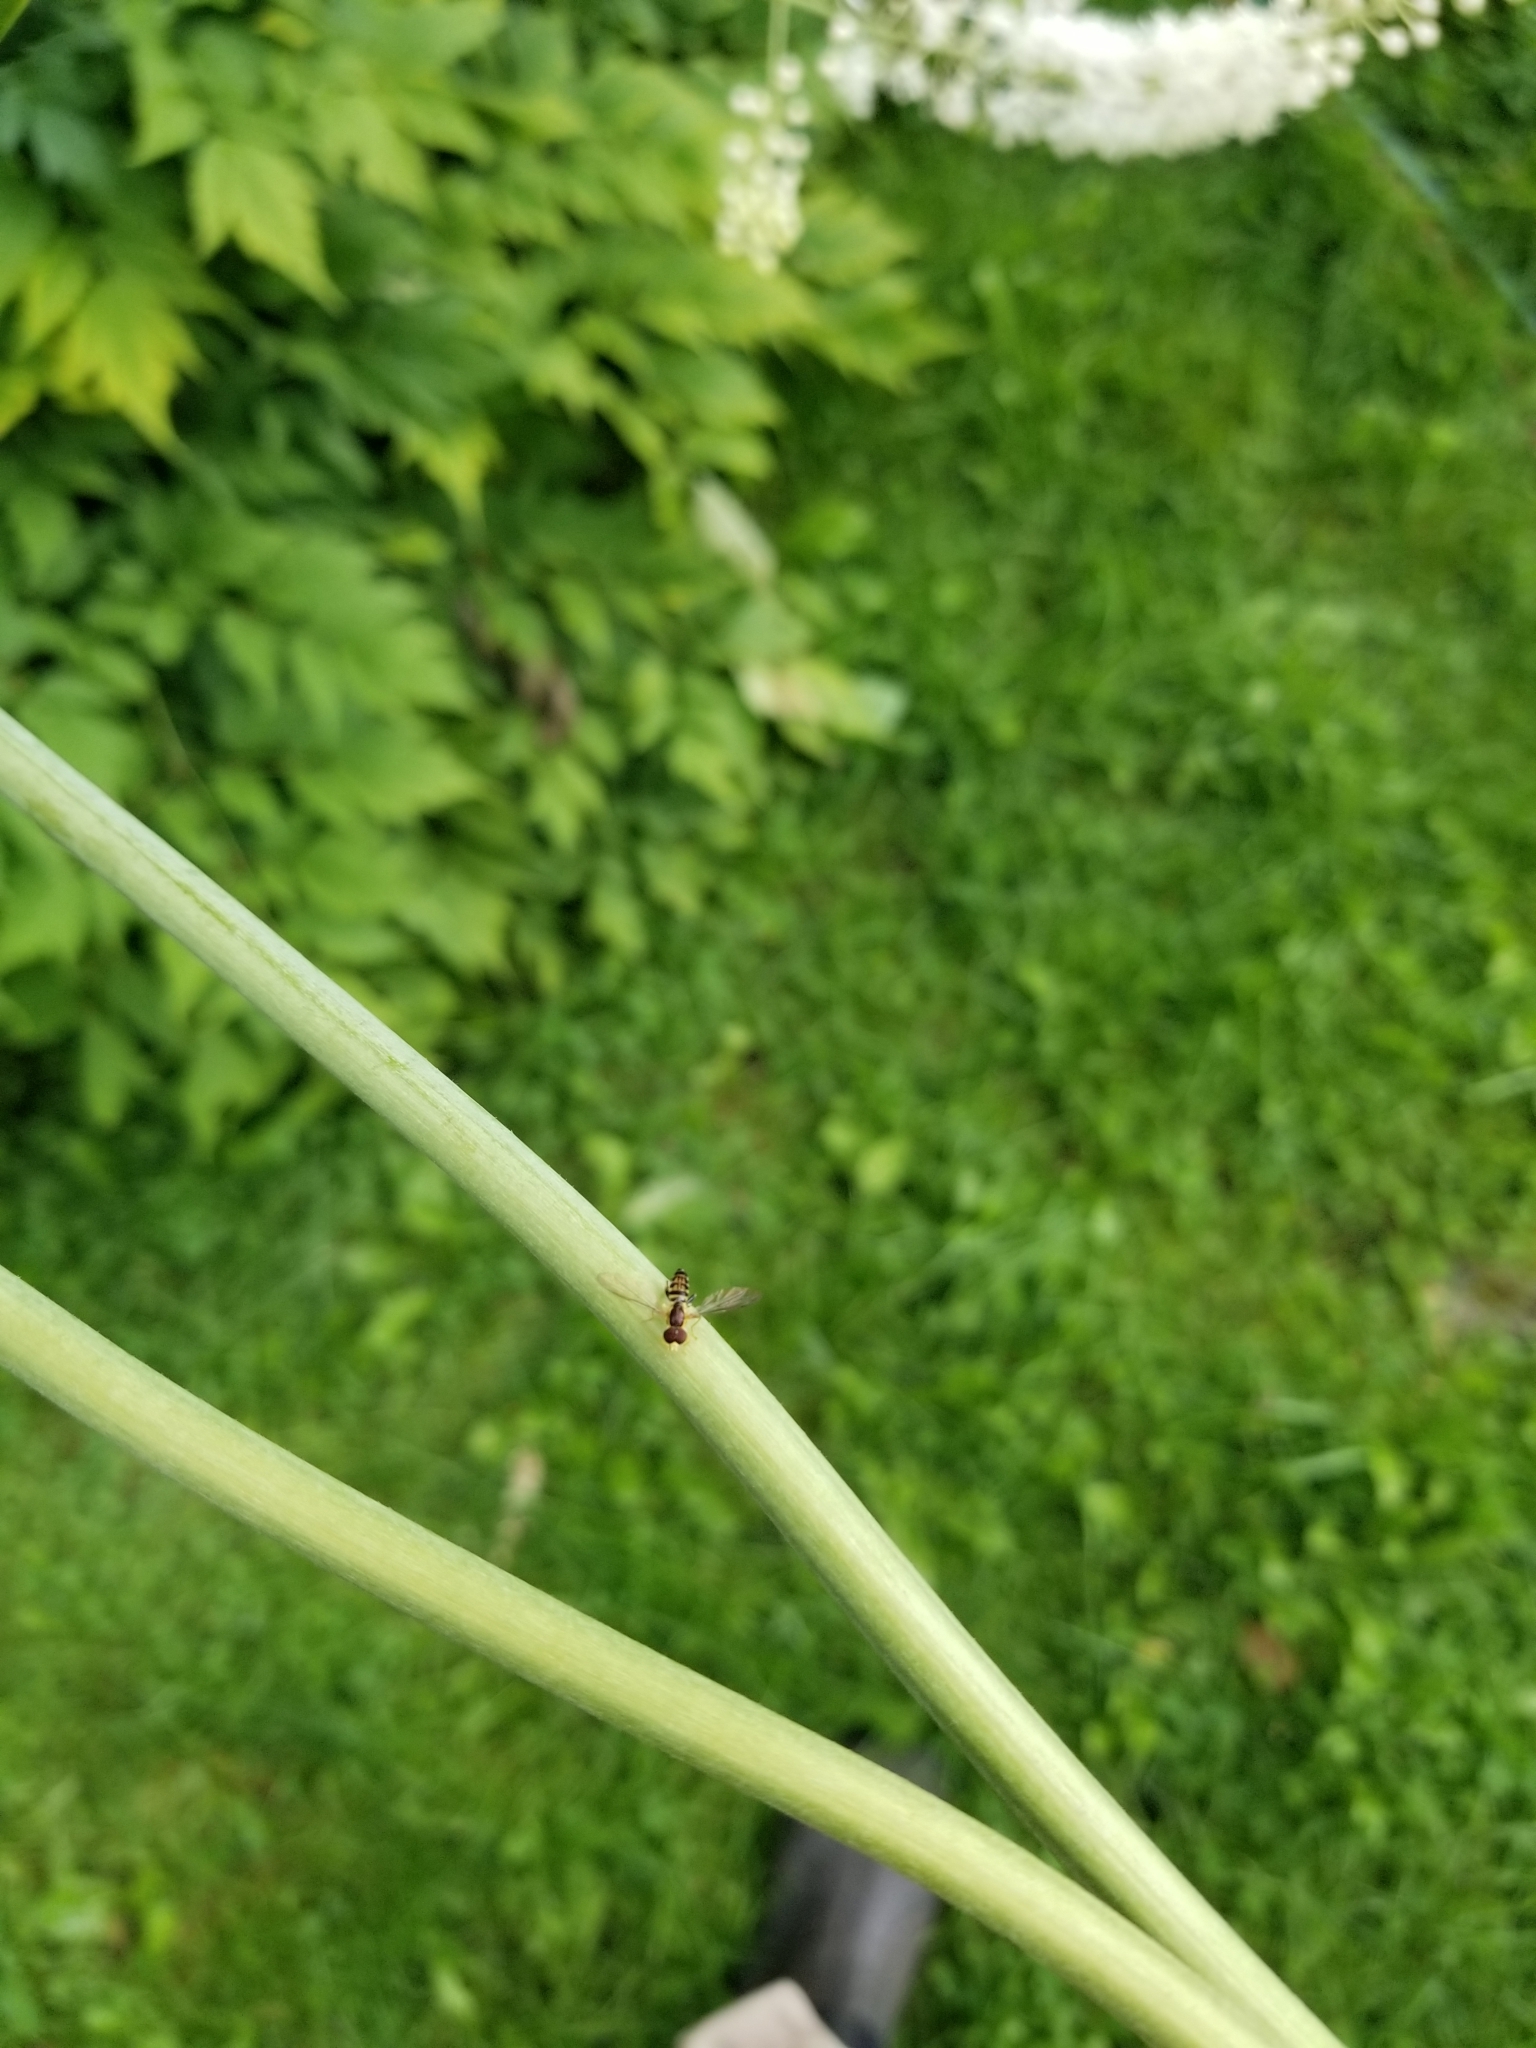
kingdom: Animalia
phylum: Arthropoda
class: Insecta
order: Diptera
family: Syrphidae
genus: Toxomerus
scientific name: Toxomerus geminatus
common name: Eastern calligrapher
